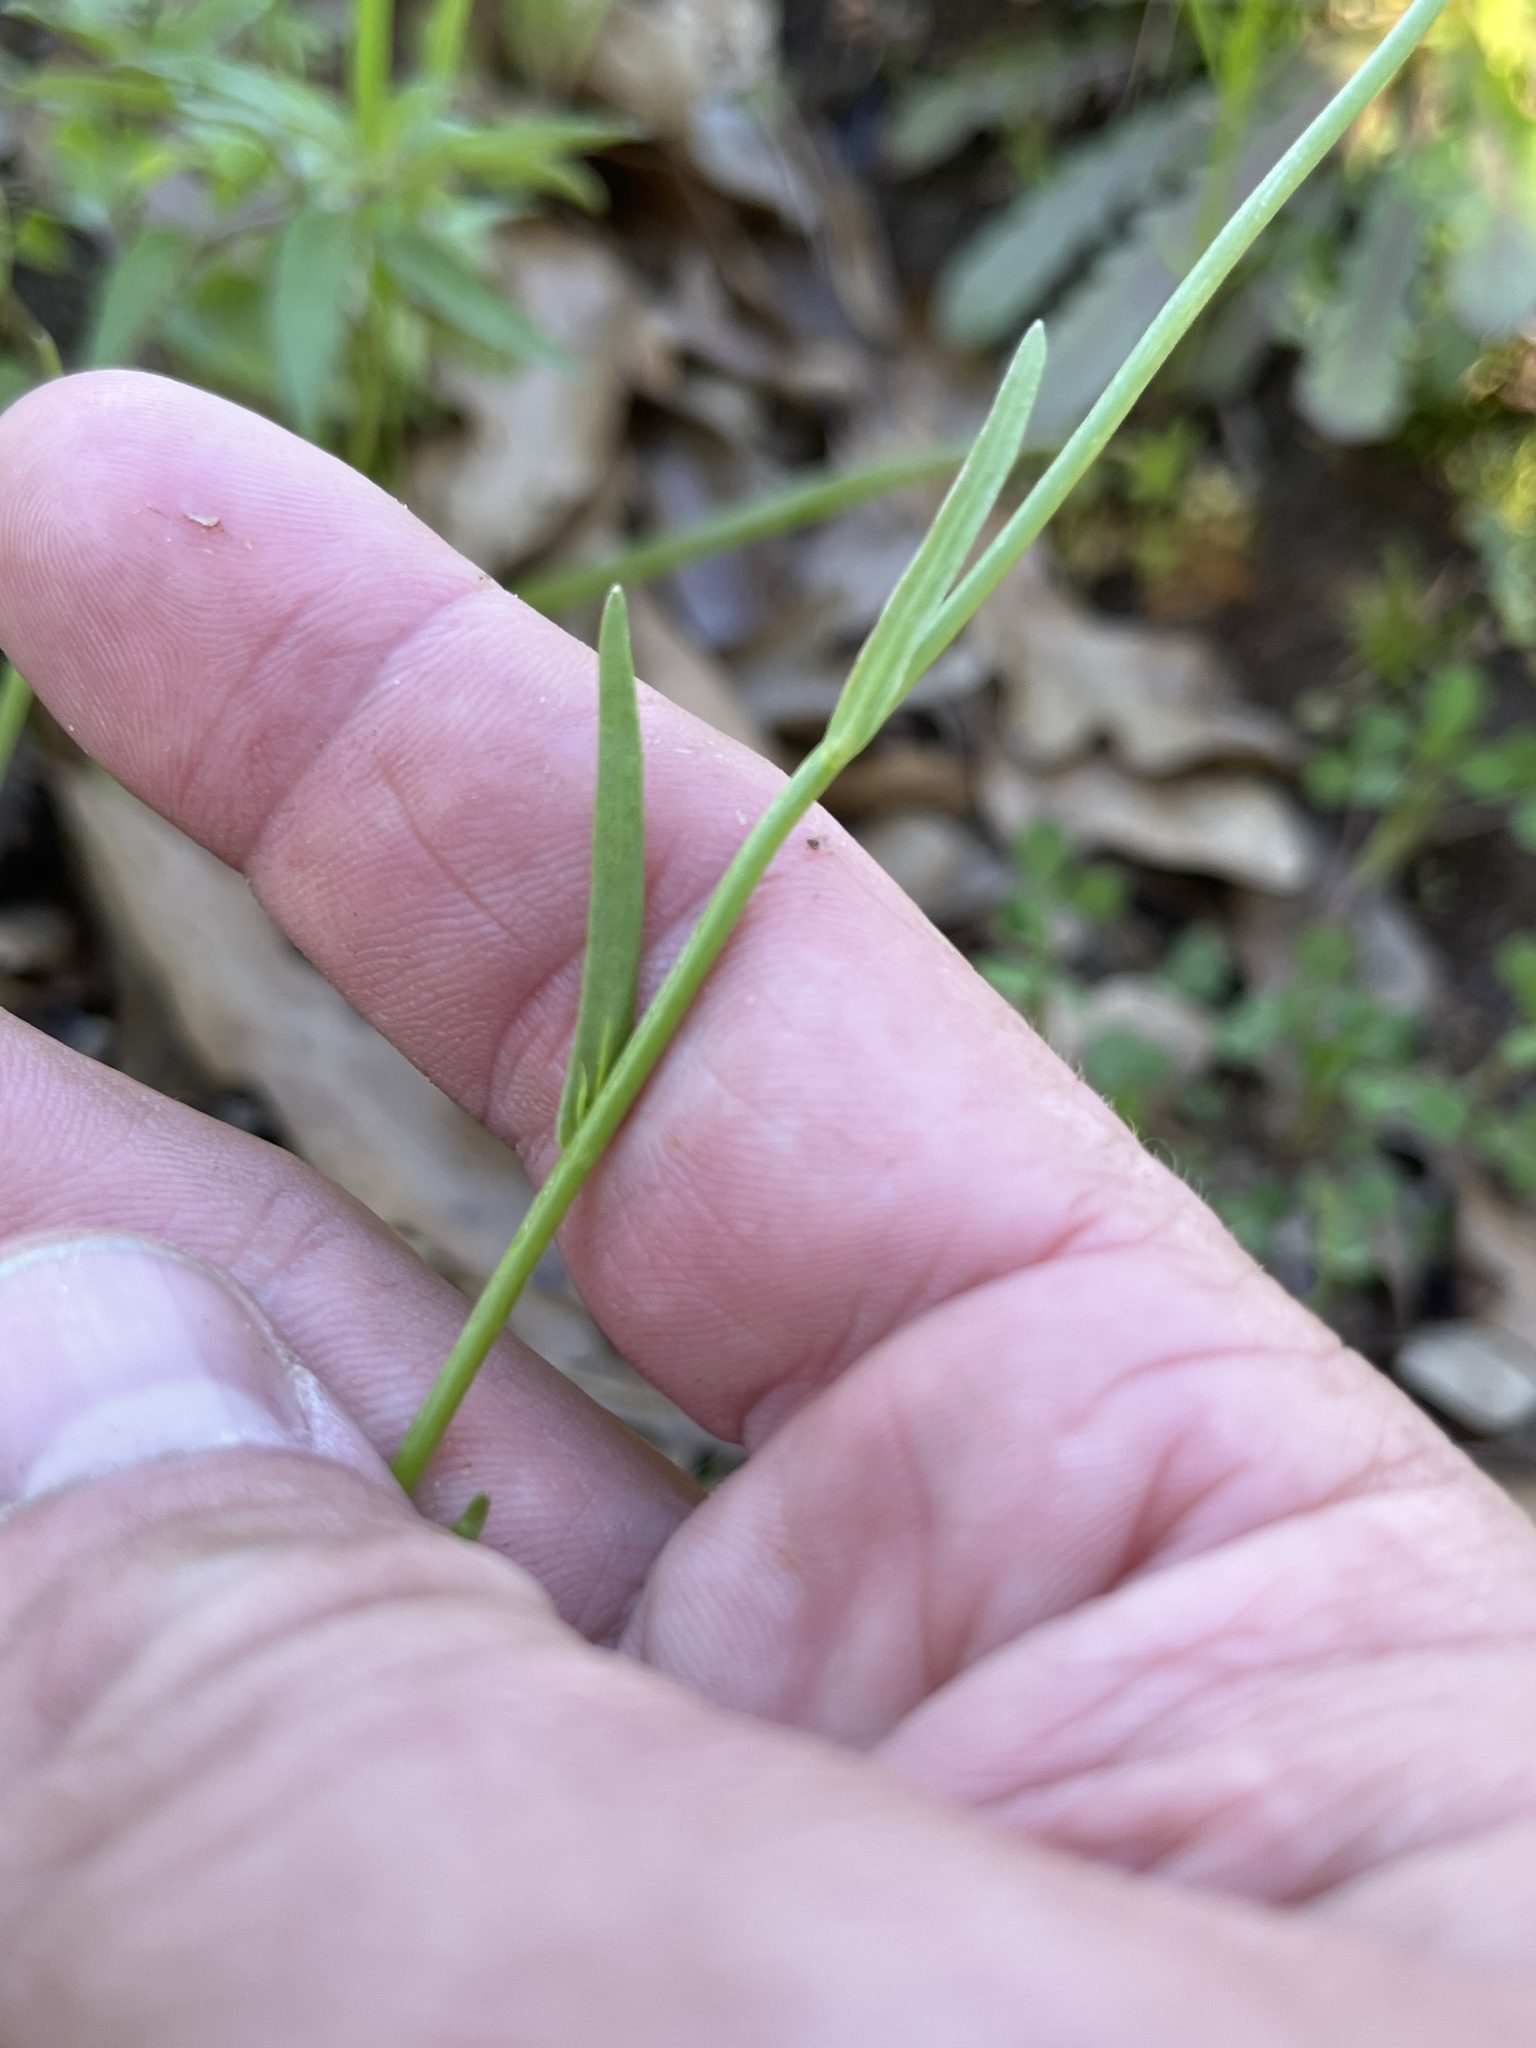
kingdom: Plantae
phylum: Tracheophyta
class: Magnoliopsida
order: Lamiales
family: Plantaginaceae
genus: Nuttallanthus
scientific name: Nuttallanthus texanus
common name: Texas toadflax
